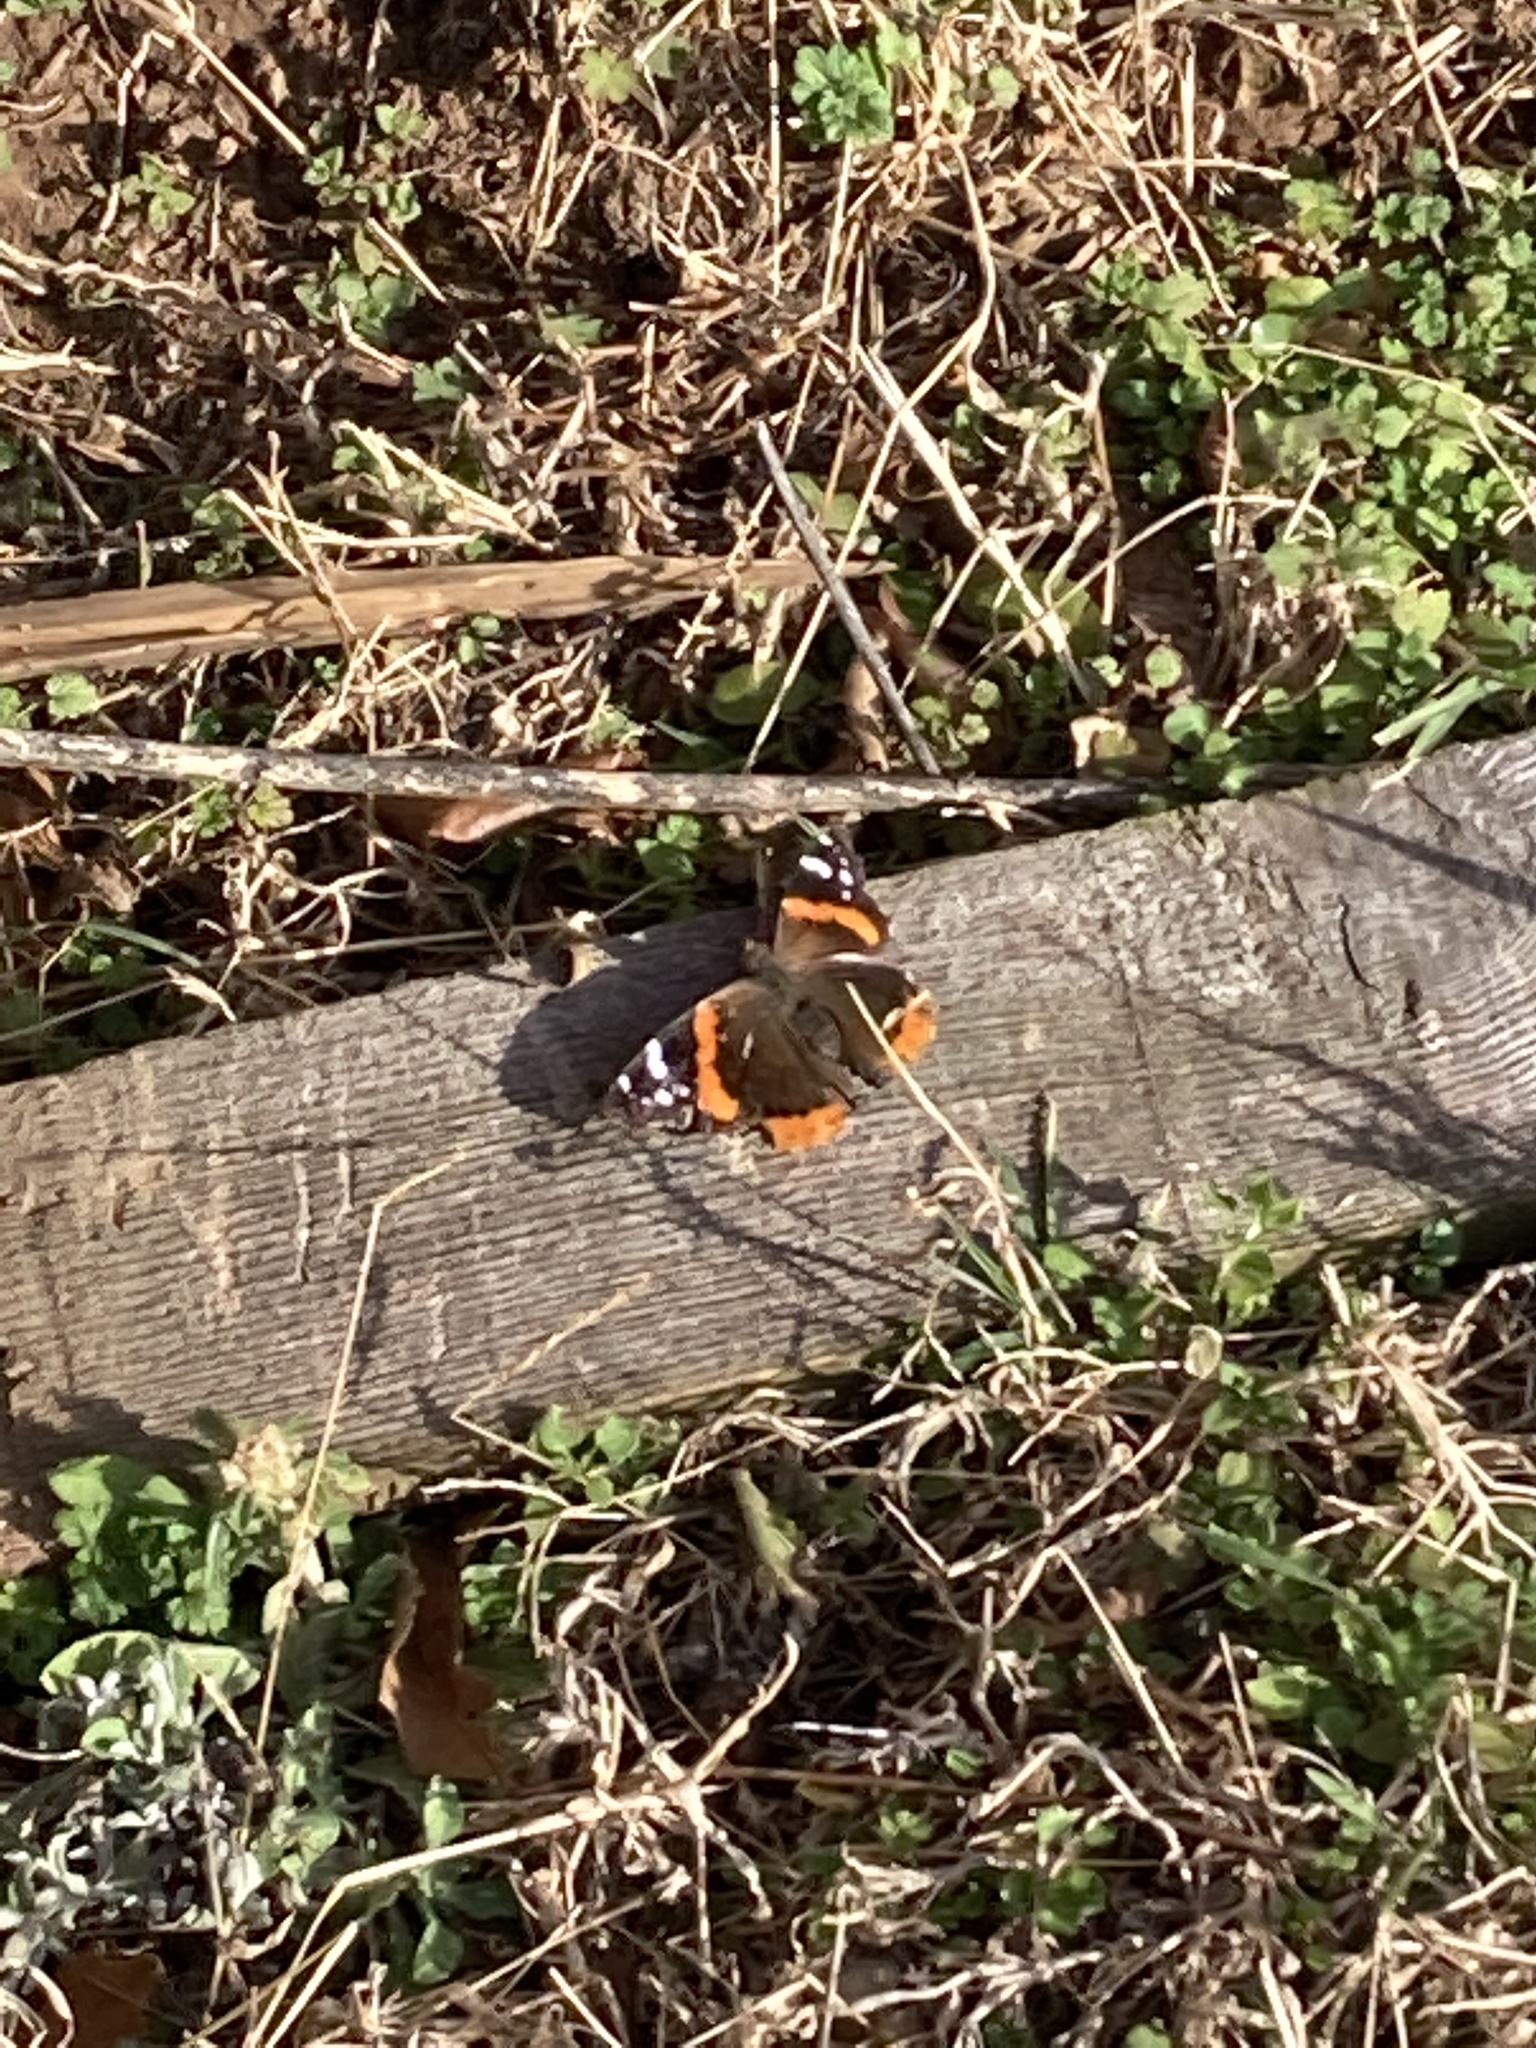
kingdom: Animalia
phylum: Arthropoda
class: Insecta
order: Lepidoptera
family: Nymphalidae
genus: Vanessa
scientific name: Vanessa atalanta
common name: Red admiral
